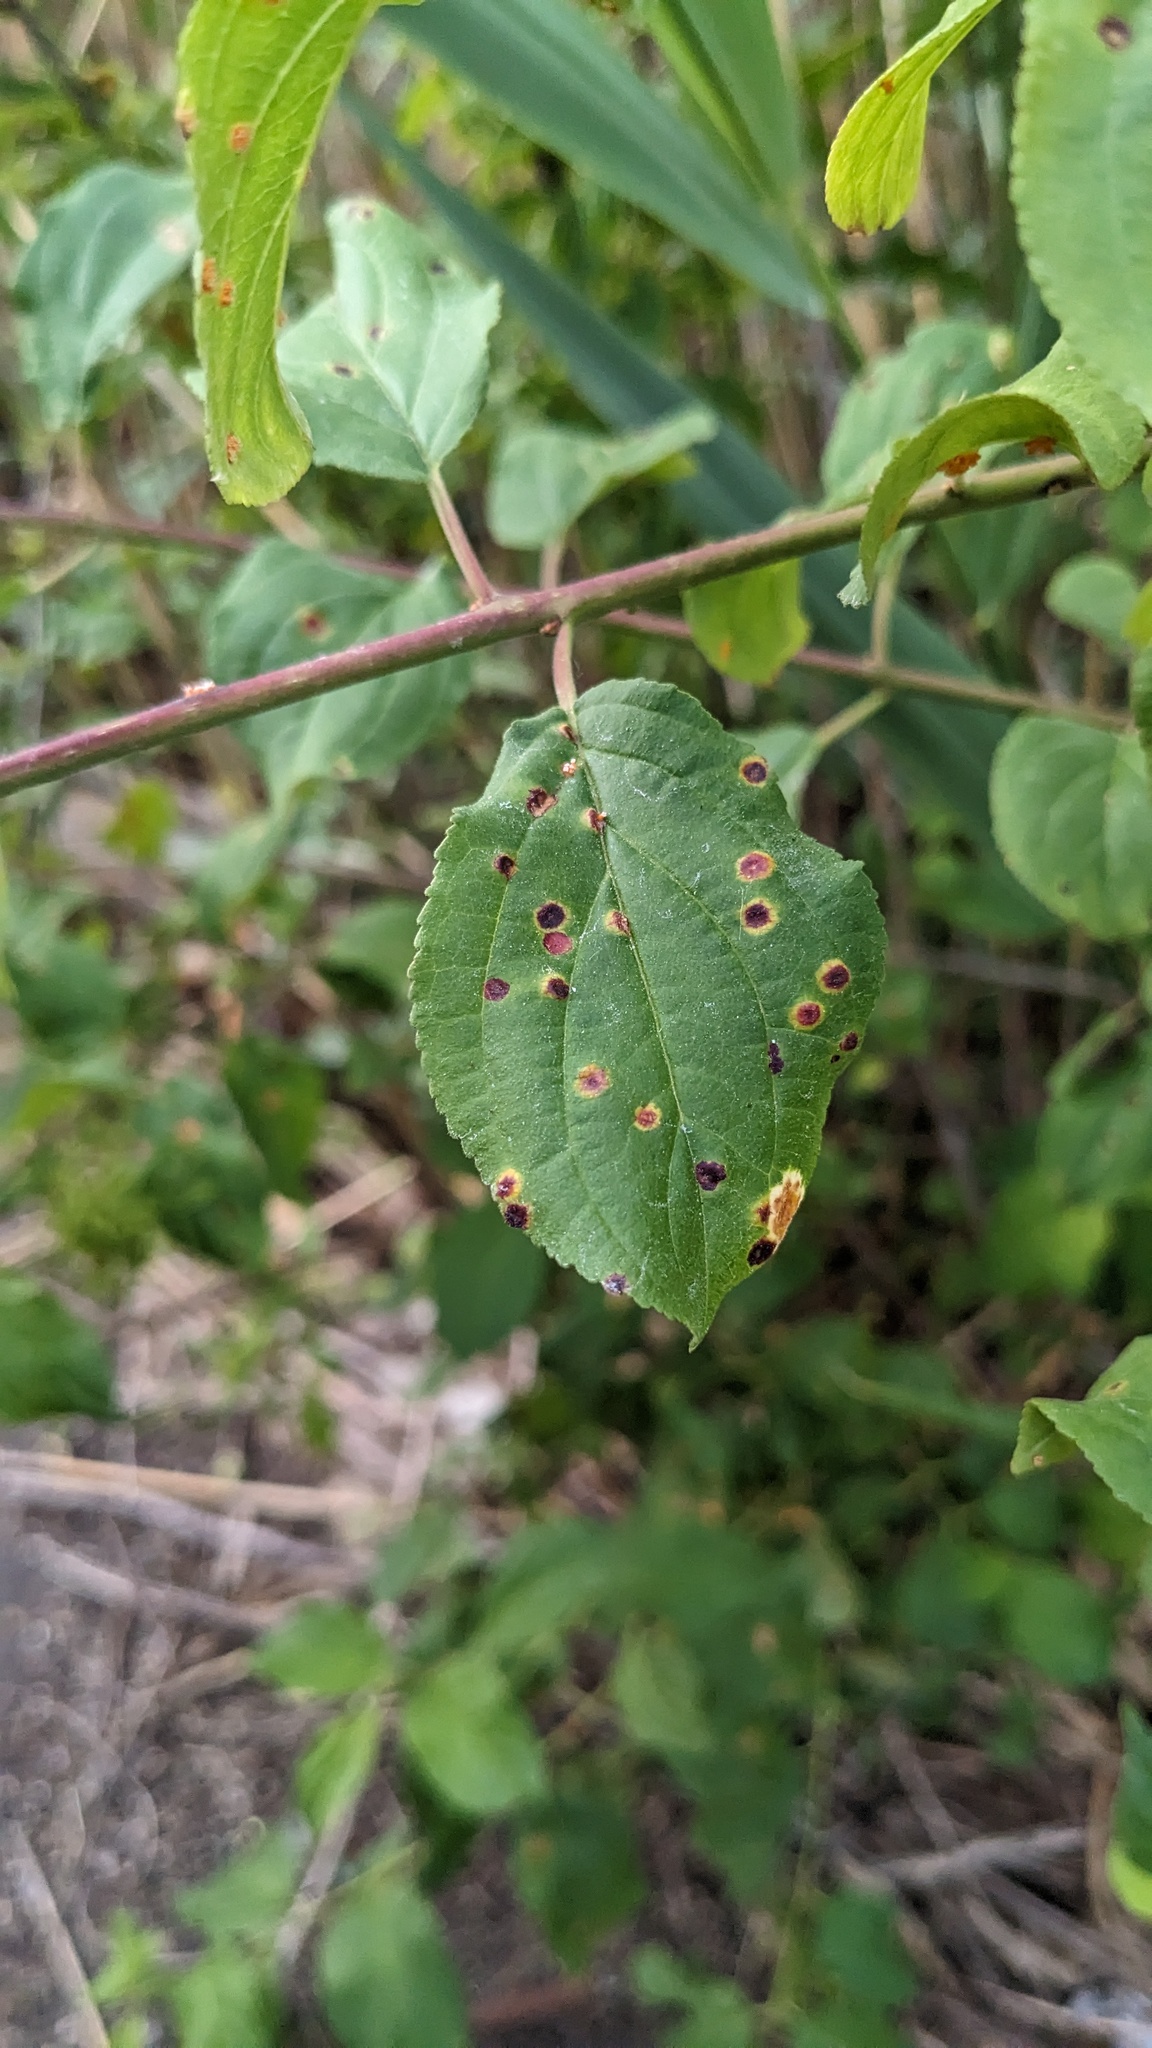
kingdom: Plantae
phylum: Tracheophyta
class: Magnoliopsida
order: Rosales
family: Rhamnaceae
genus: Rhamnus
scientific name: Rhamnus cathartica
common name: Common buckthorn
